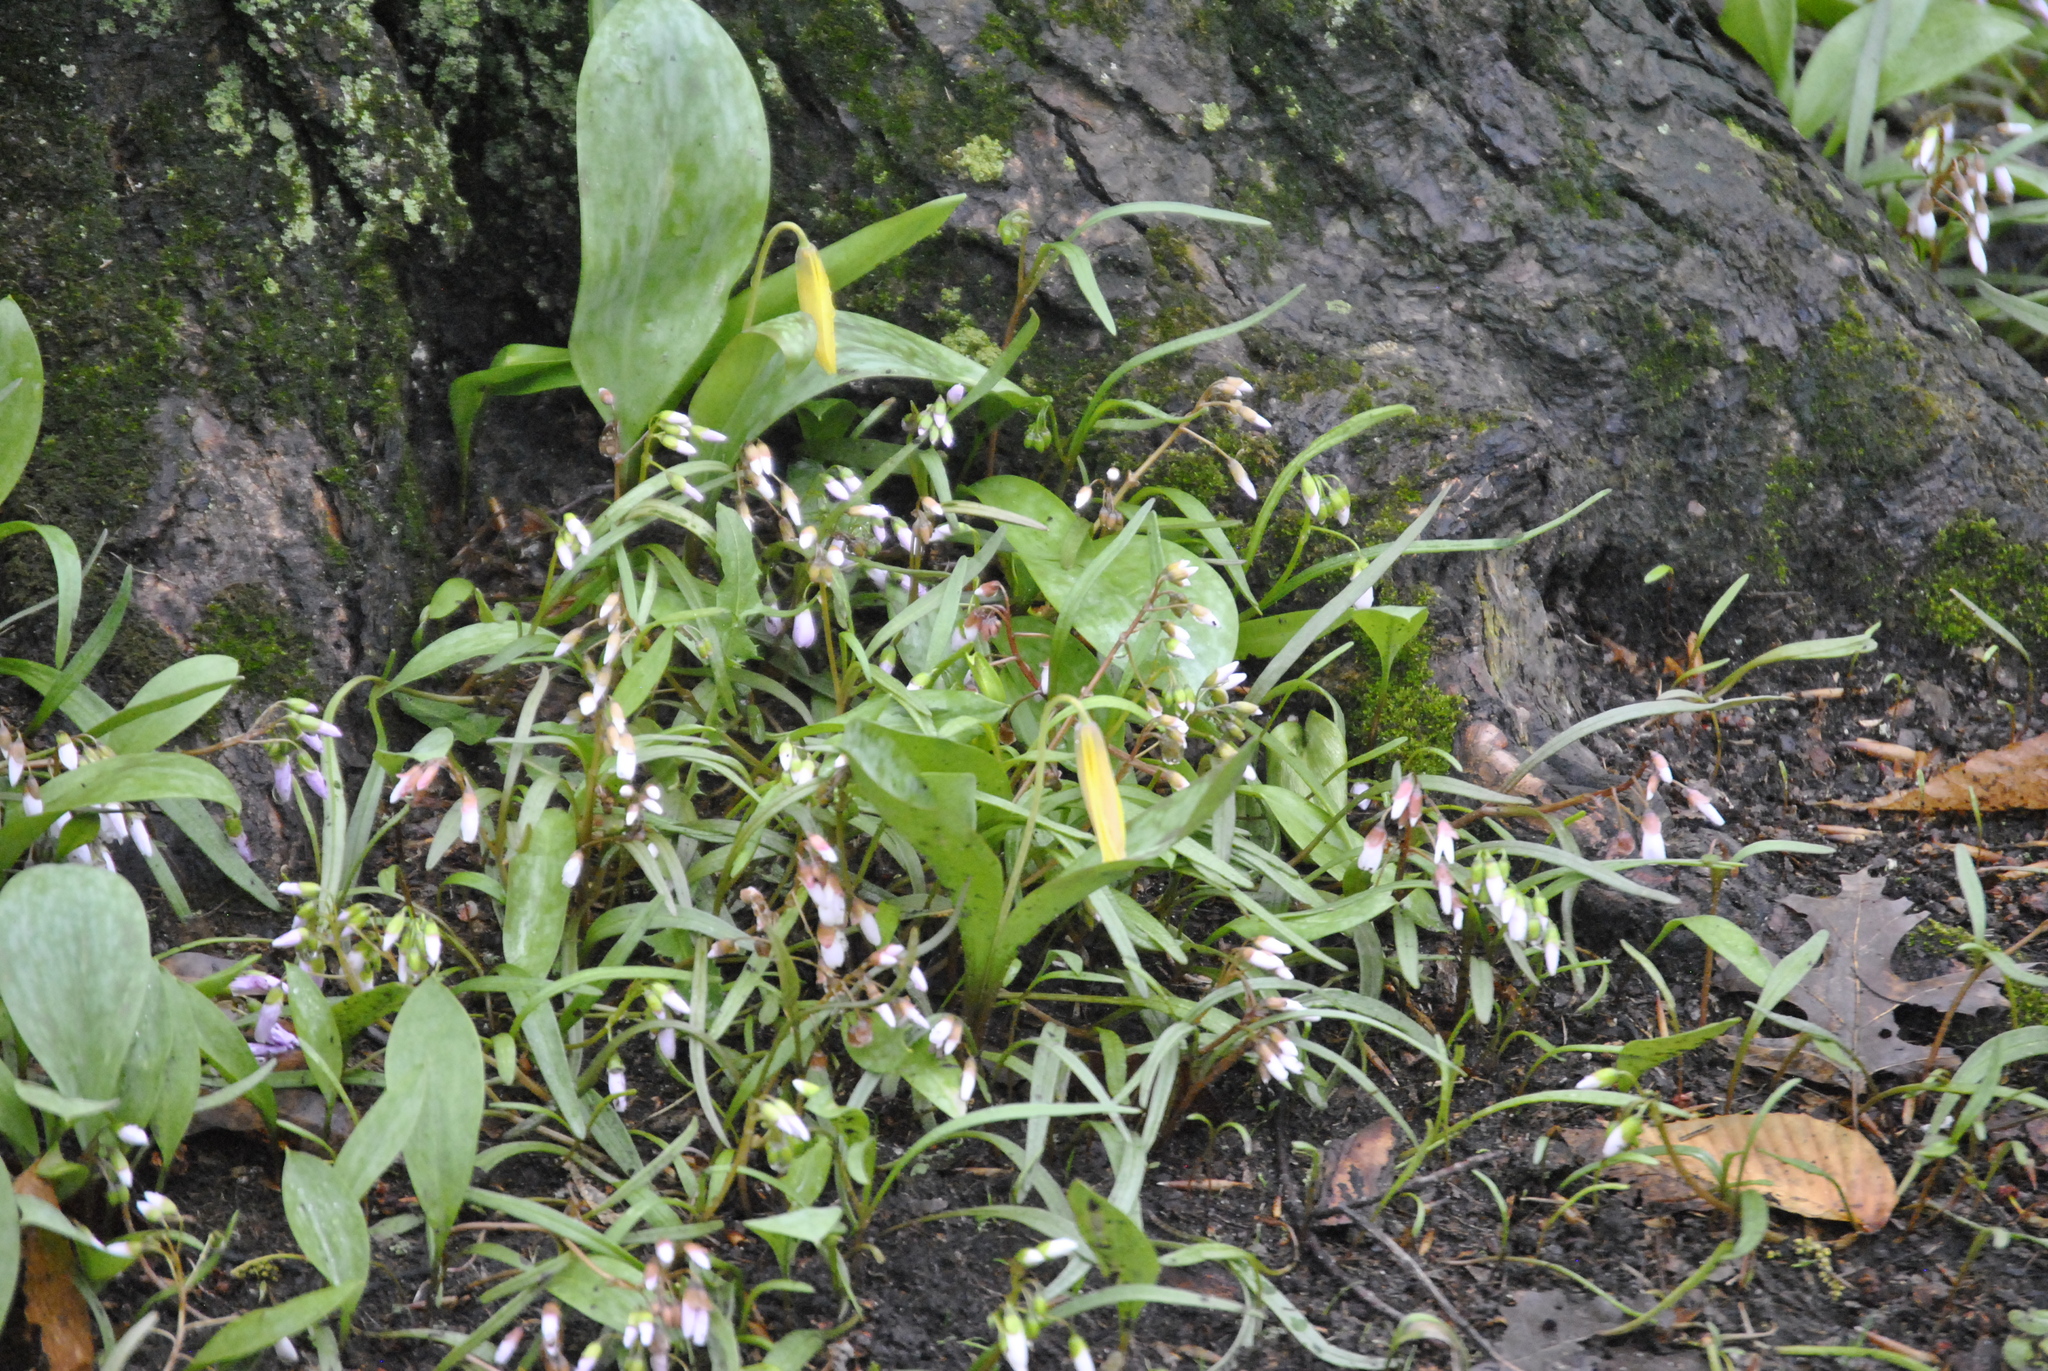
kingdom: Plantae
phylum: Tracheophyta
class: Magnoliopsida
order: Caryophyllales
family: Montiaceae
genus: Claytonia
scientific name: Claytonia virginica
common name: Virginia springbeauty
